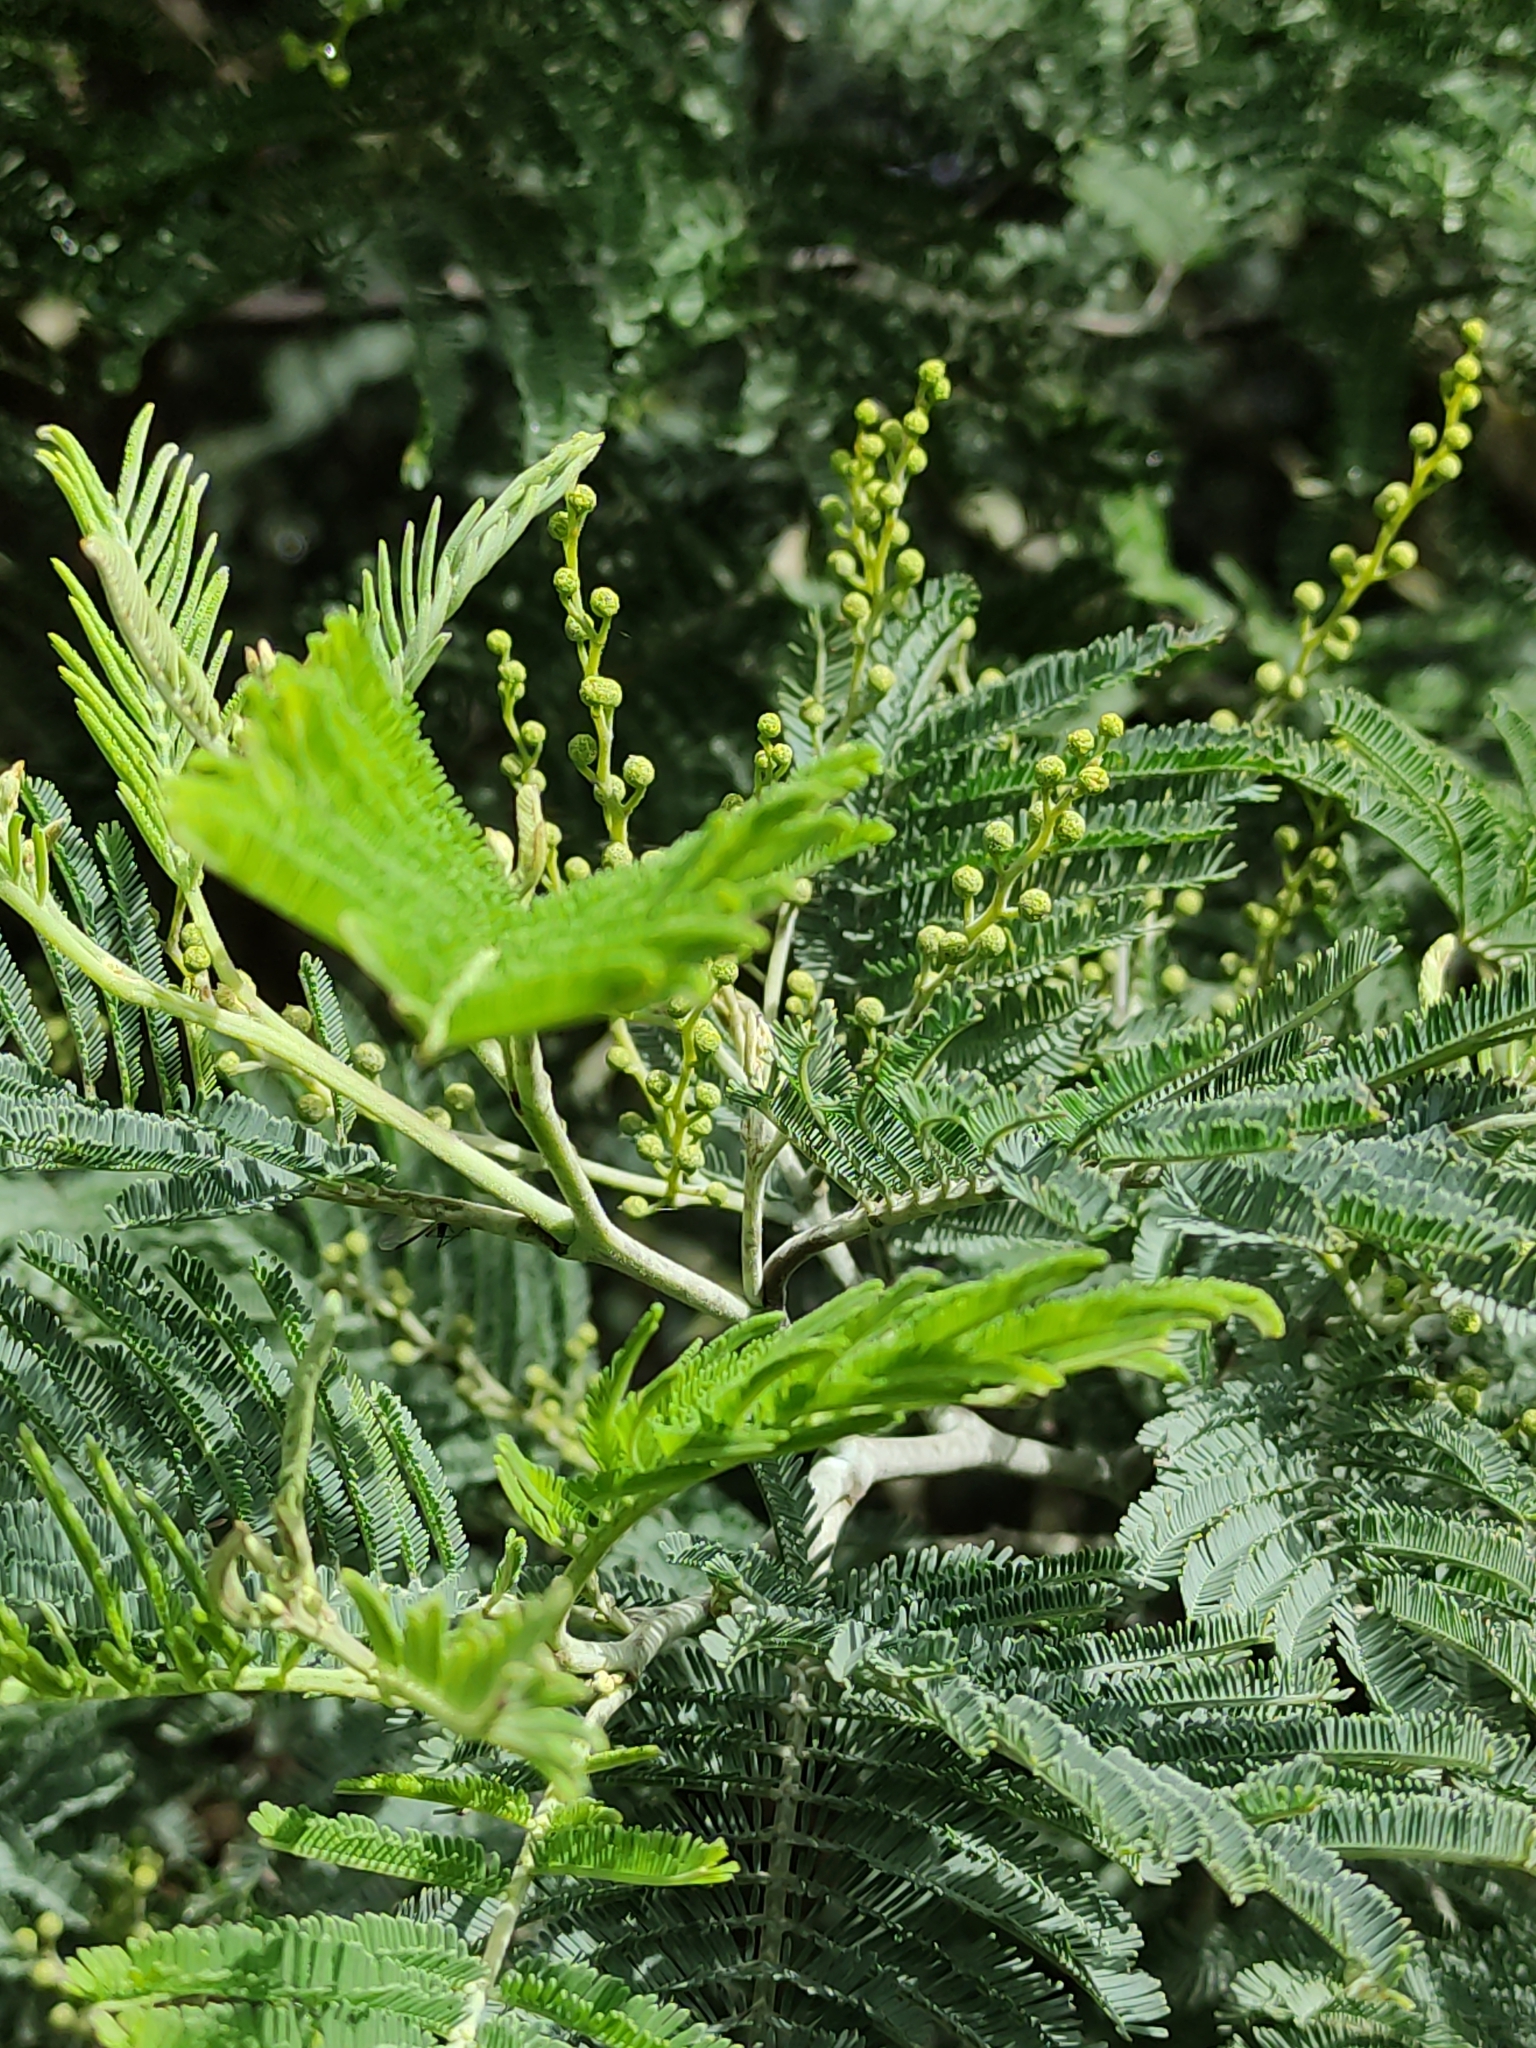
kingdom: Plantae
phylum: Tracheophyta
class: Magnoliopsida
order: Fabales
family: Fabaceae
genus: Acacia
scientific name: Acacia dealbata
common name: Silver wattle
